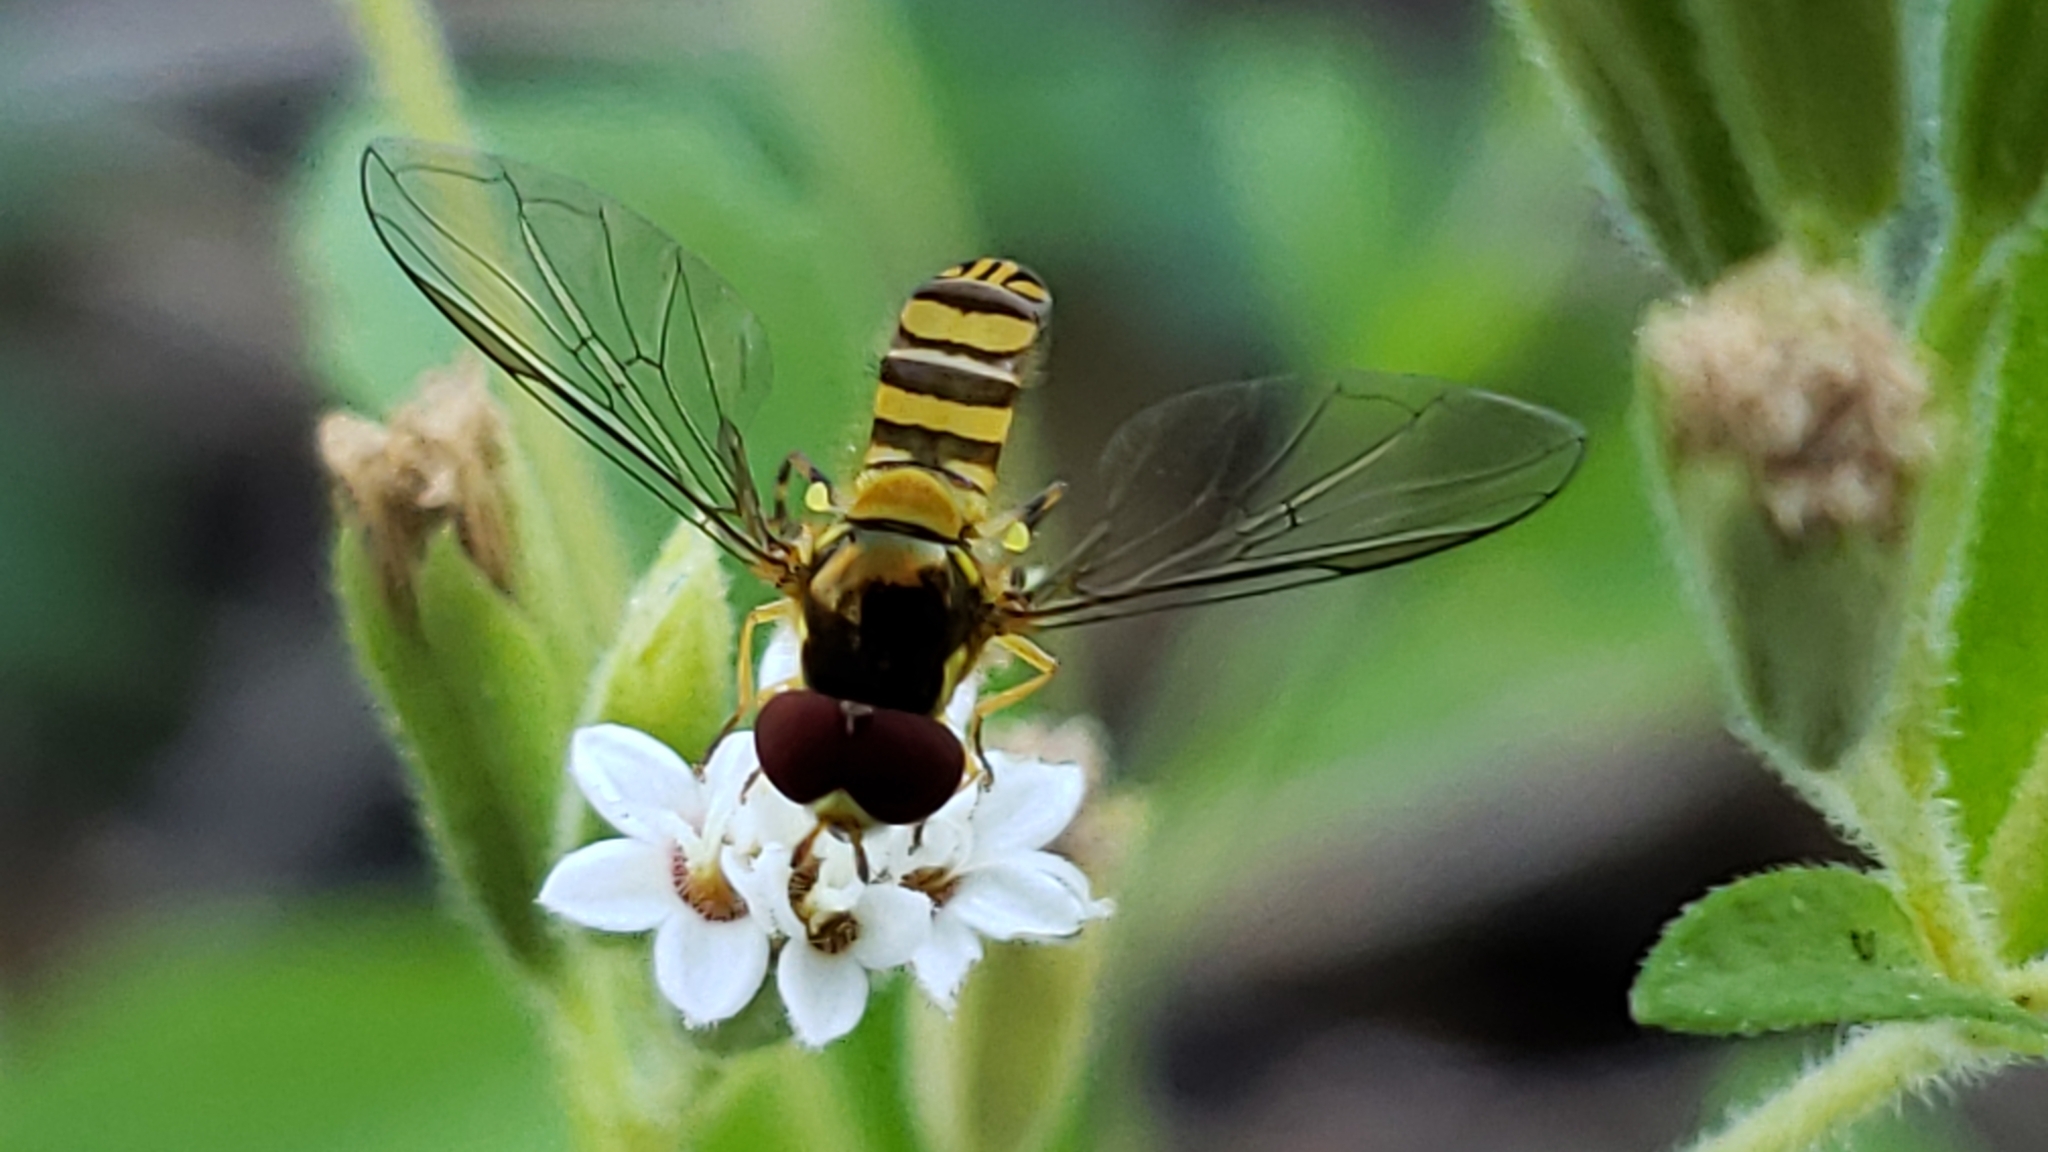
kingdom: Animalia
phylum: Arthropoda
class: Insecta
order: Diptera
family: Syrphidae
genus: Allograpta
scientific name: Allograpta obliqua
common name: Common oblique syrphid
